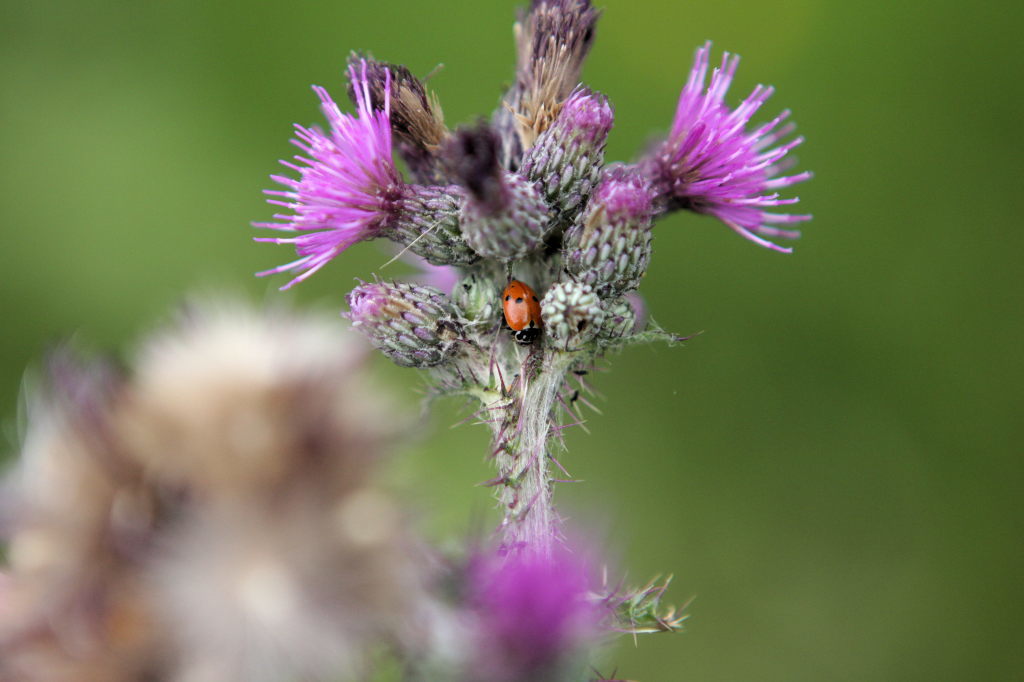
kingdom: Animalia
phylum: Arthropoda
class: Insecta
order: Coleoptera
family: Coccinellidae
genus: Hippodamia
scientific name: Hippodamia variegata
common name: Ladybird beetle
